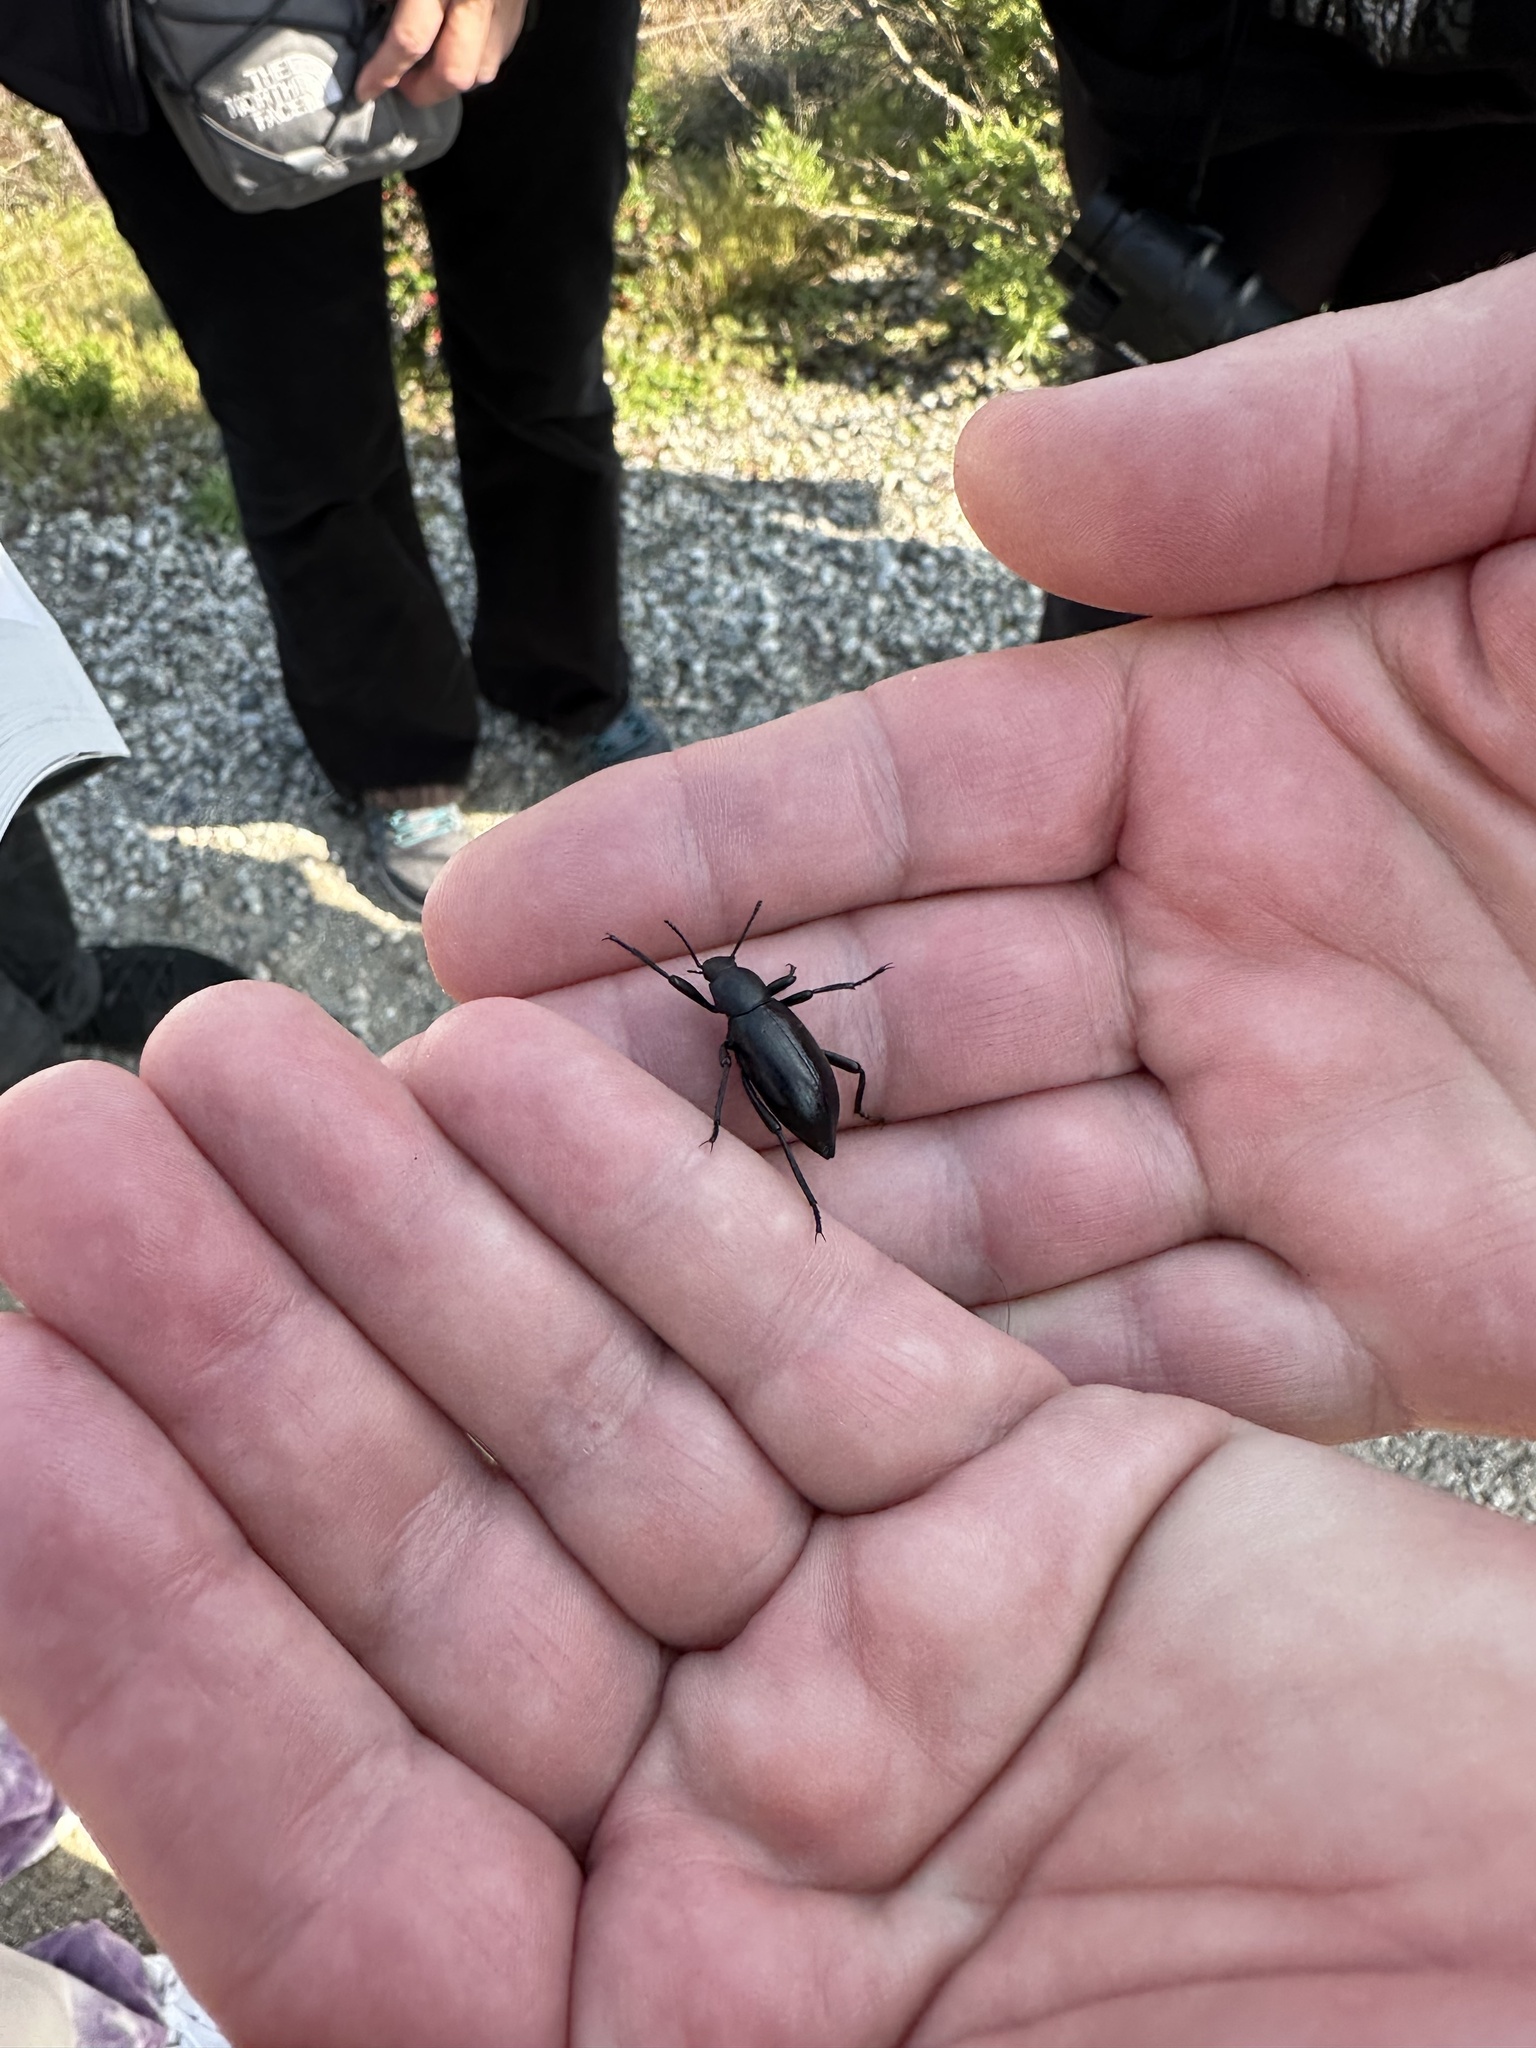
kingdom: Animalia
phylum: Arthropoda
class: Insecta
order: Coleoptera
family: Tenebrionidae
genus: Eleodes
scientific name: Eleodes gracilis
